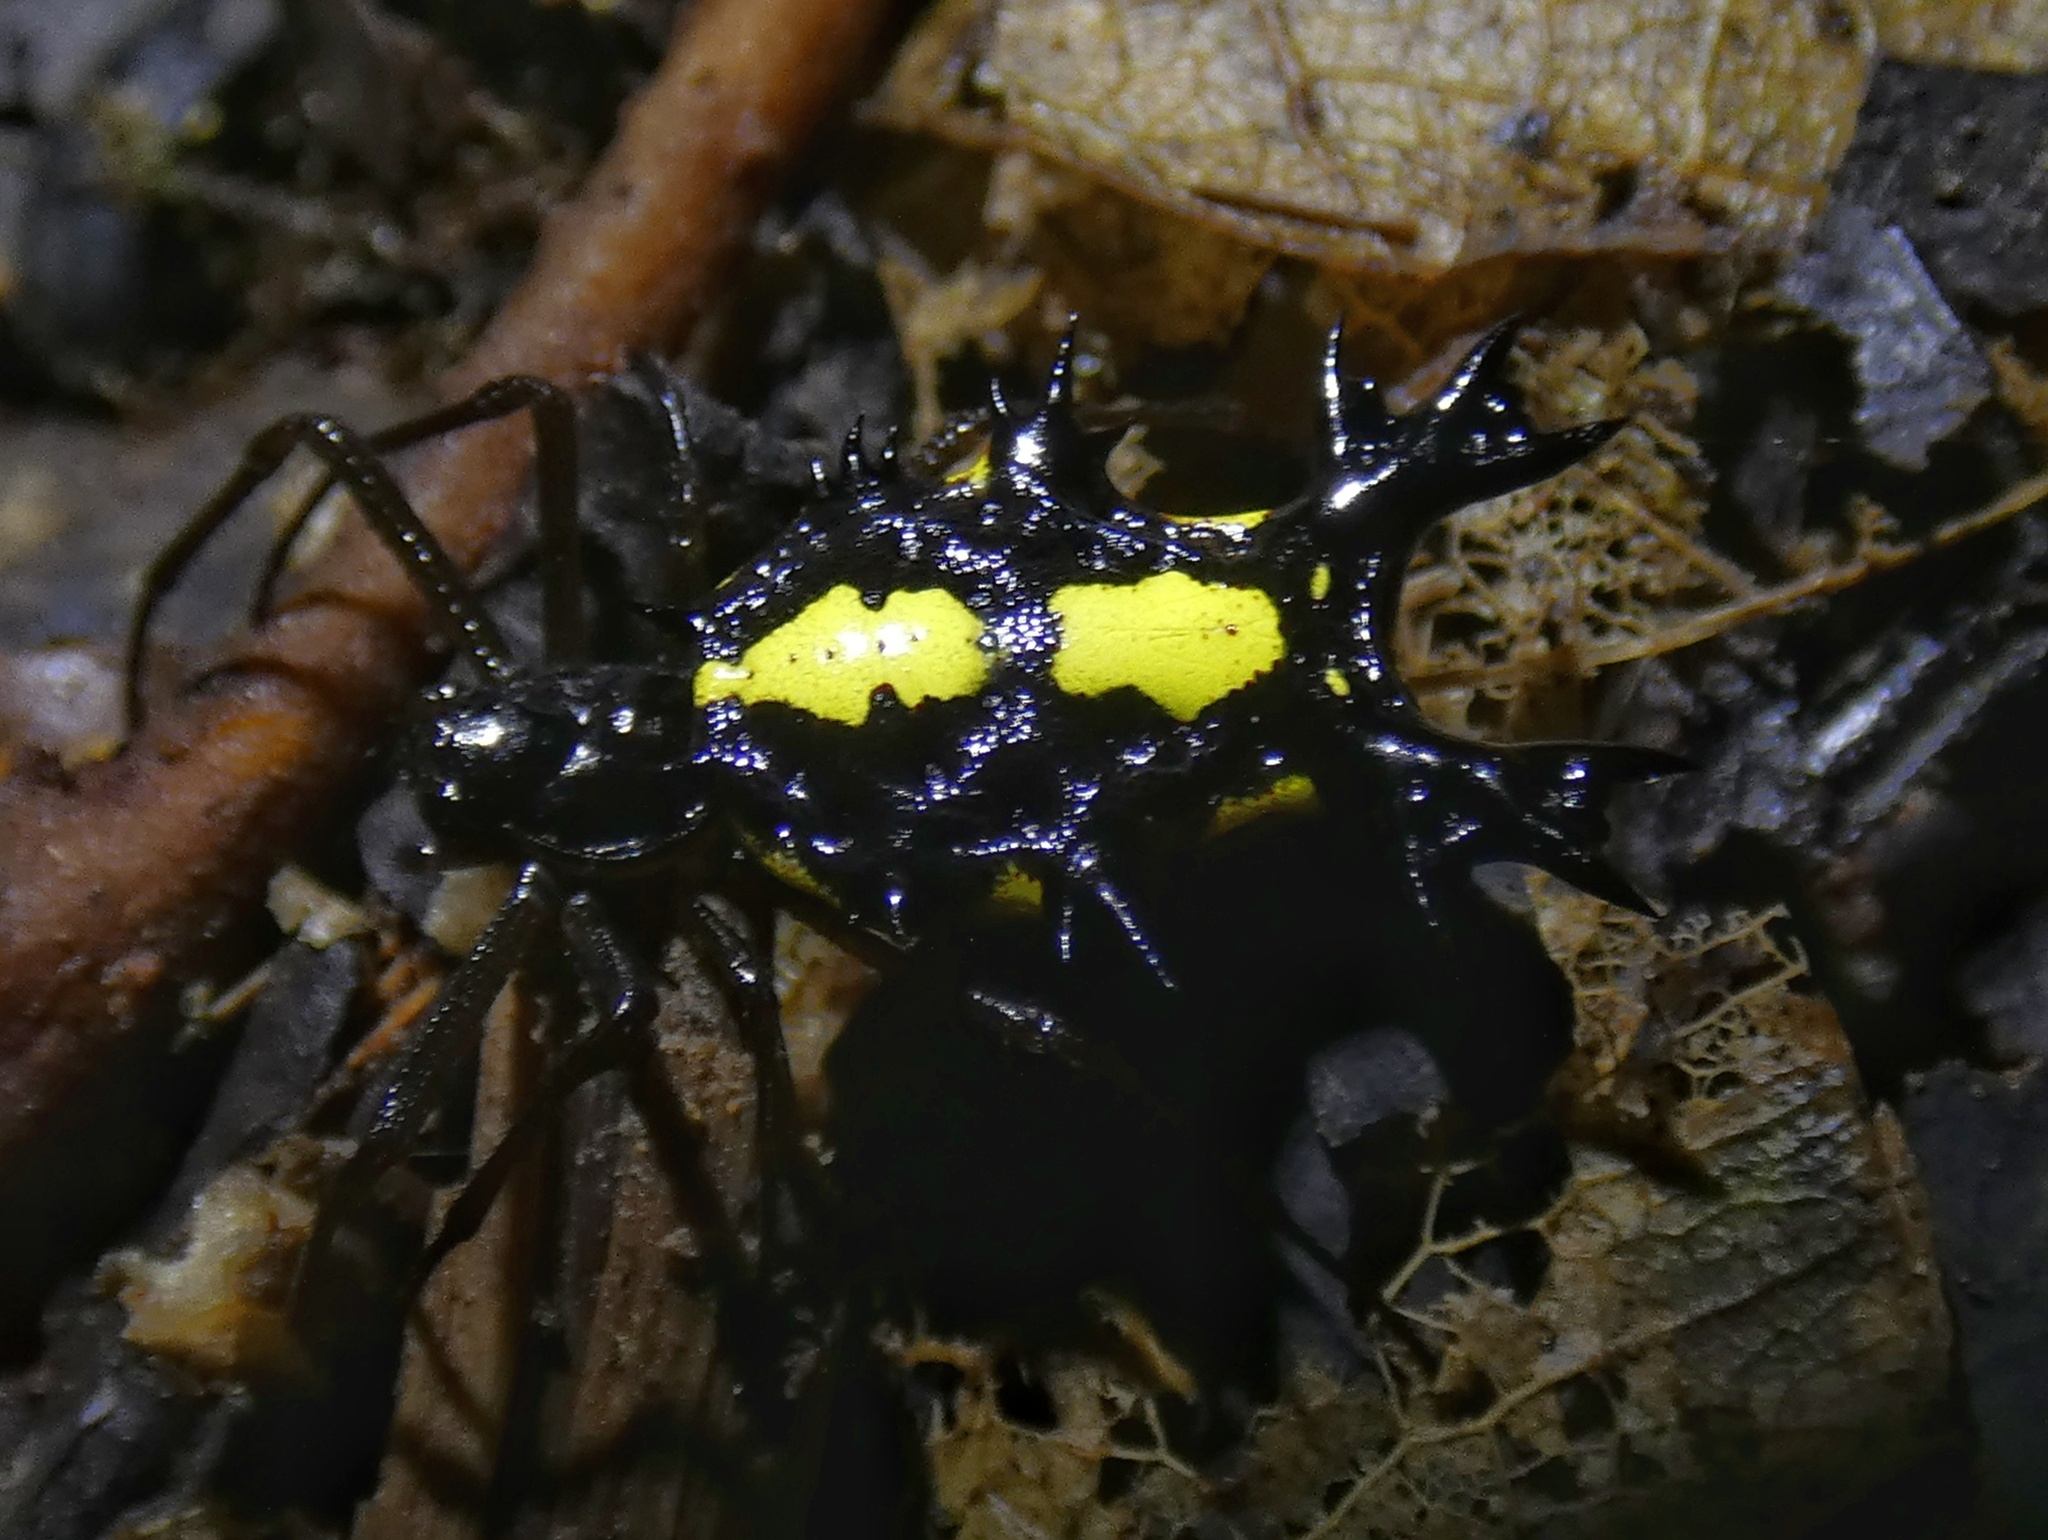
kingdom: Animalia
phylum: Arthropoda
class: Arachnida
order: Araneae
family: Araneidae
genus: Micrathena
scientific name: Micrathena lepidoptera
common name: Orb weavers
